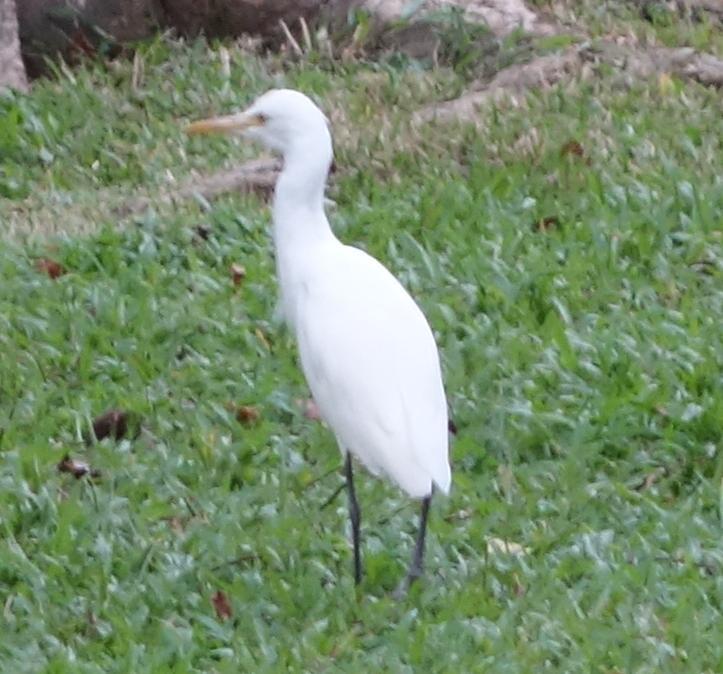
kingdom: Animalia
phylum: Chordata
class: Aves
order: Pelecaniformes
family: Ardeidae
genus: Bubulcus
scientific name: Bubulcus coromandus
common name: Eastern cattle egret
